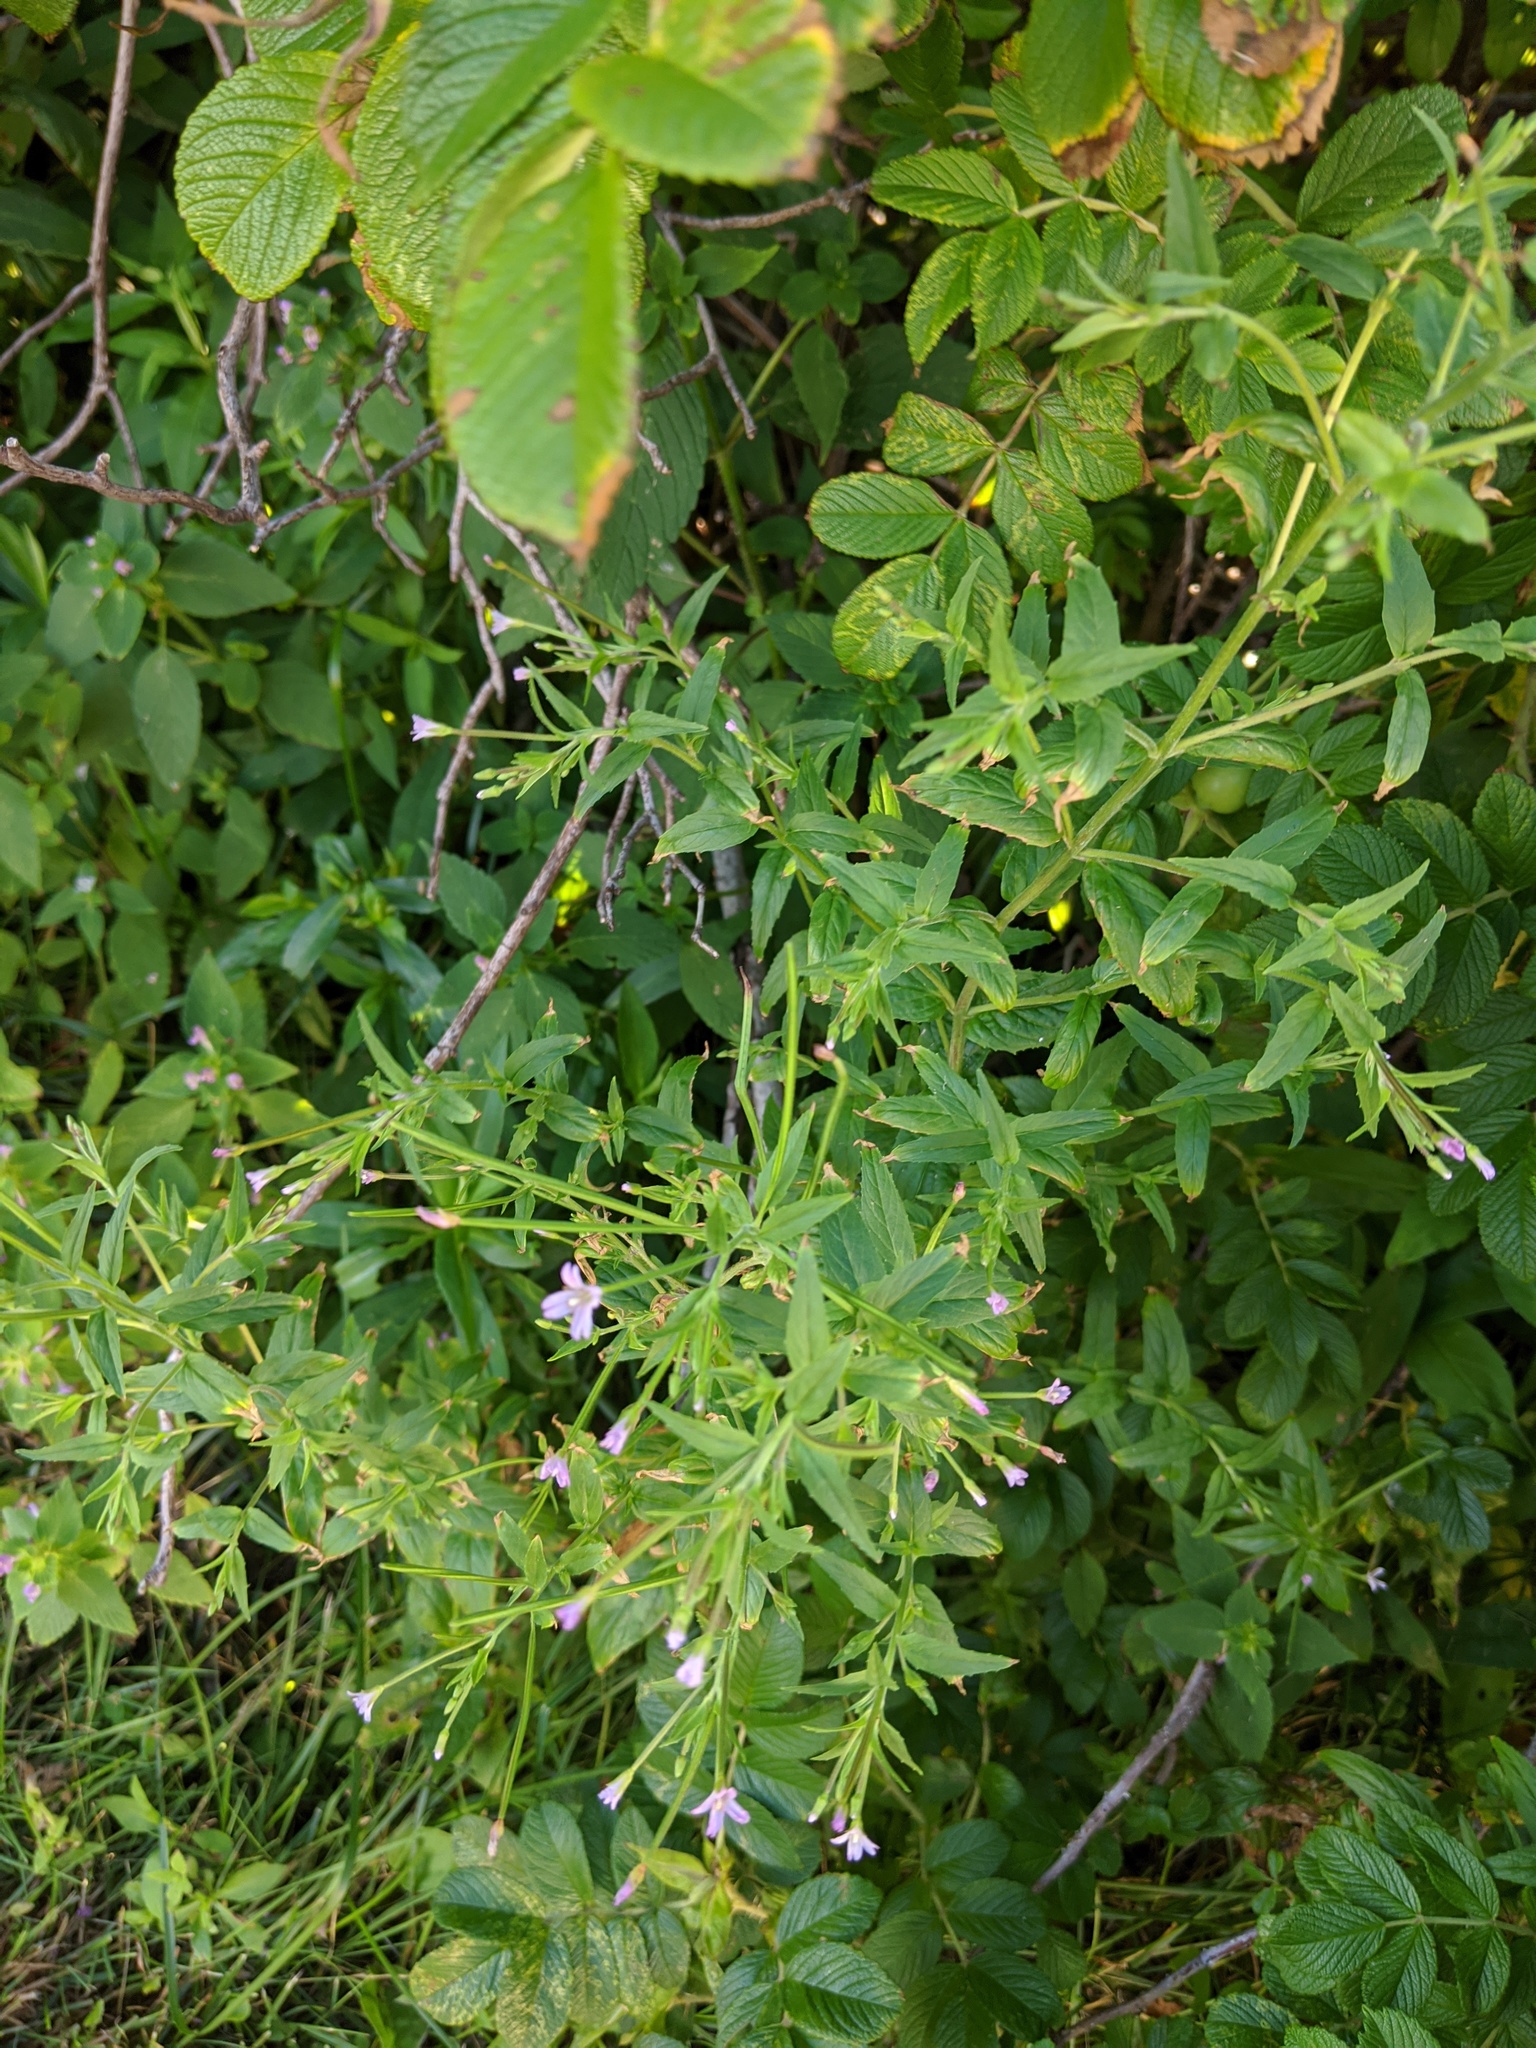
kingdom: Plantae
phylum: Tracheophyta
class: Magnoliopsida
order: Myrtales
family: Onagraceae
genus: Epilobium
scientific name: Epilobium ciliatum
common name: American willowherb
